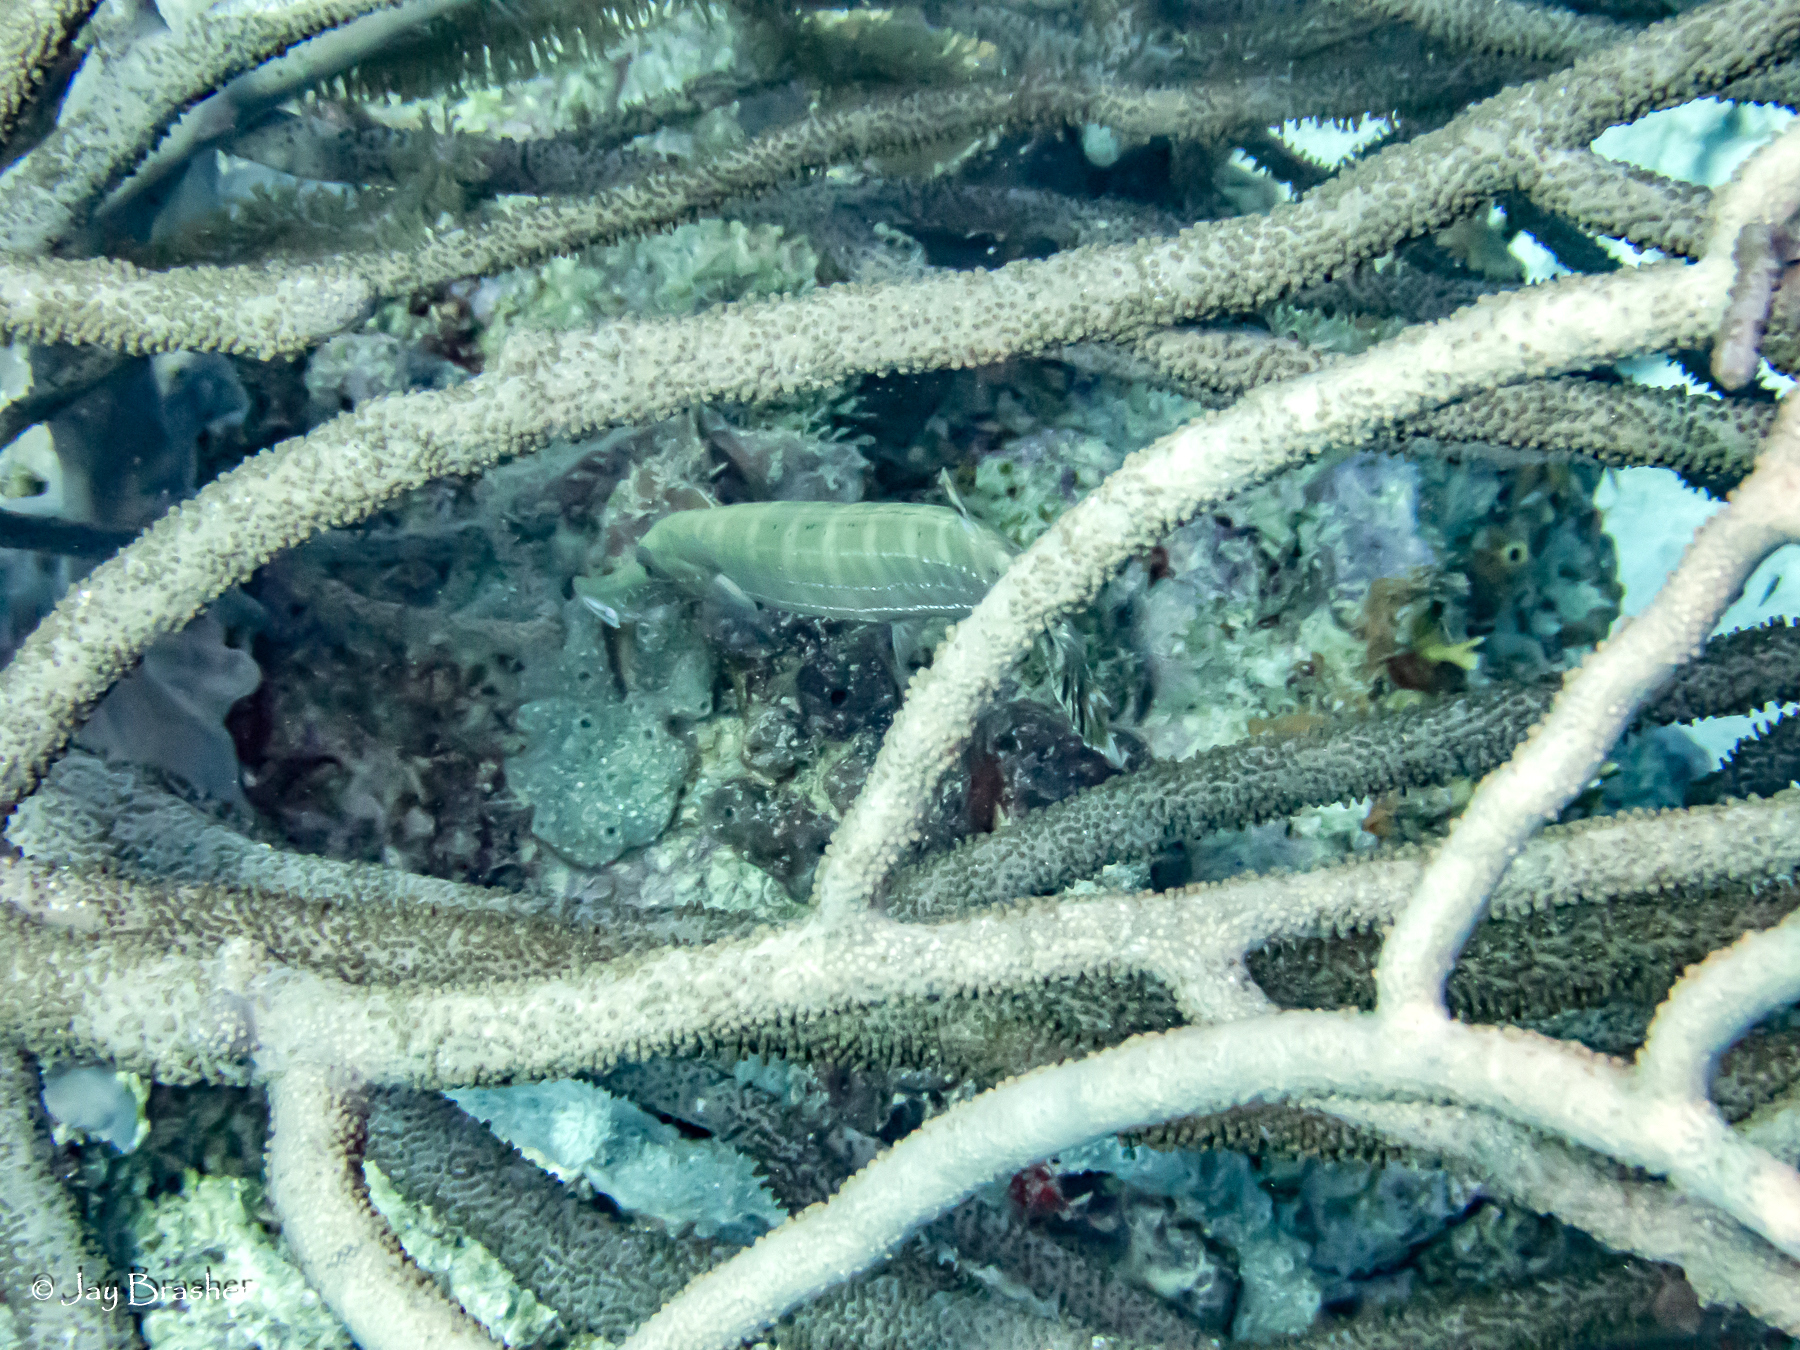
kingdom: Animalia
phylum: Chordata
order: Syngnathiformes
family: Aulostomidae
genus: Aulostomus
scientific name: Aulostomus maculatus
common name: West atlantic trumpetfish
